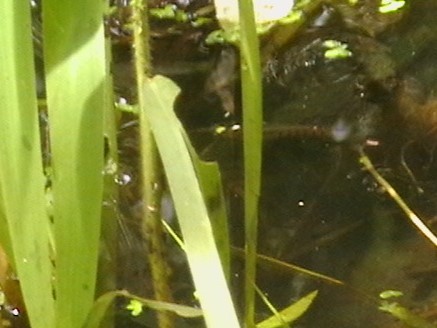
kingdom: Animalia
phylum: Chordata
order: Cyprinodontiformes
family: Aplocheilidae
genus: Aplocheilus
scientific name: Aplocheilus lineatus
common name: Striped panchax
